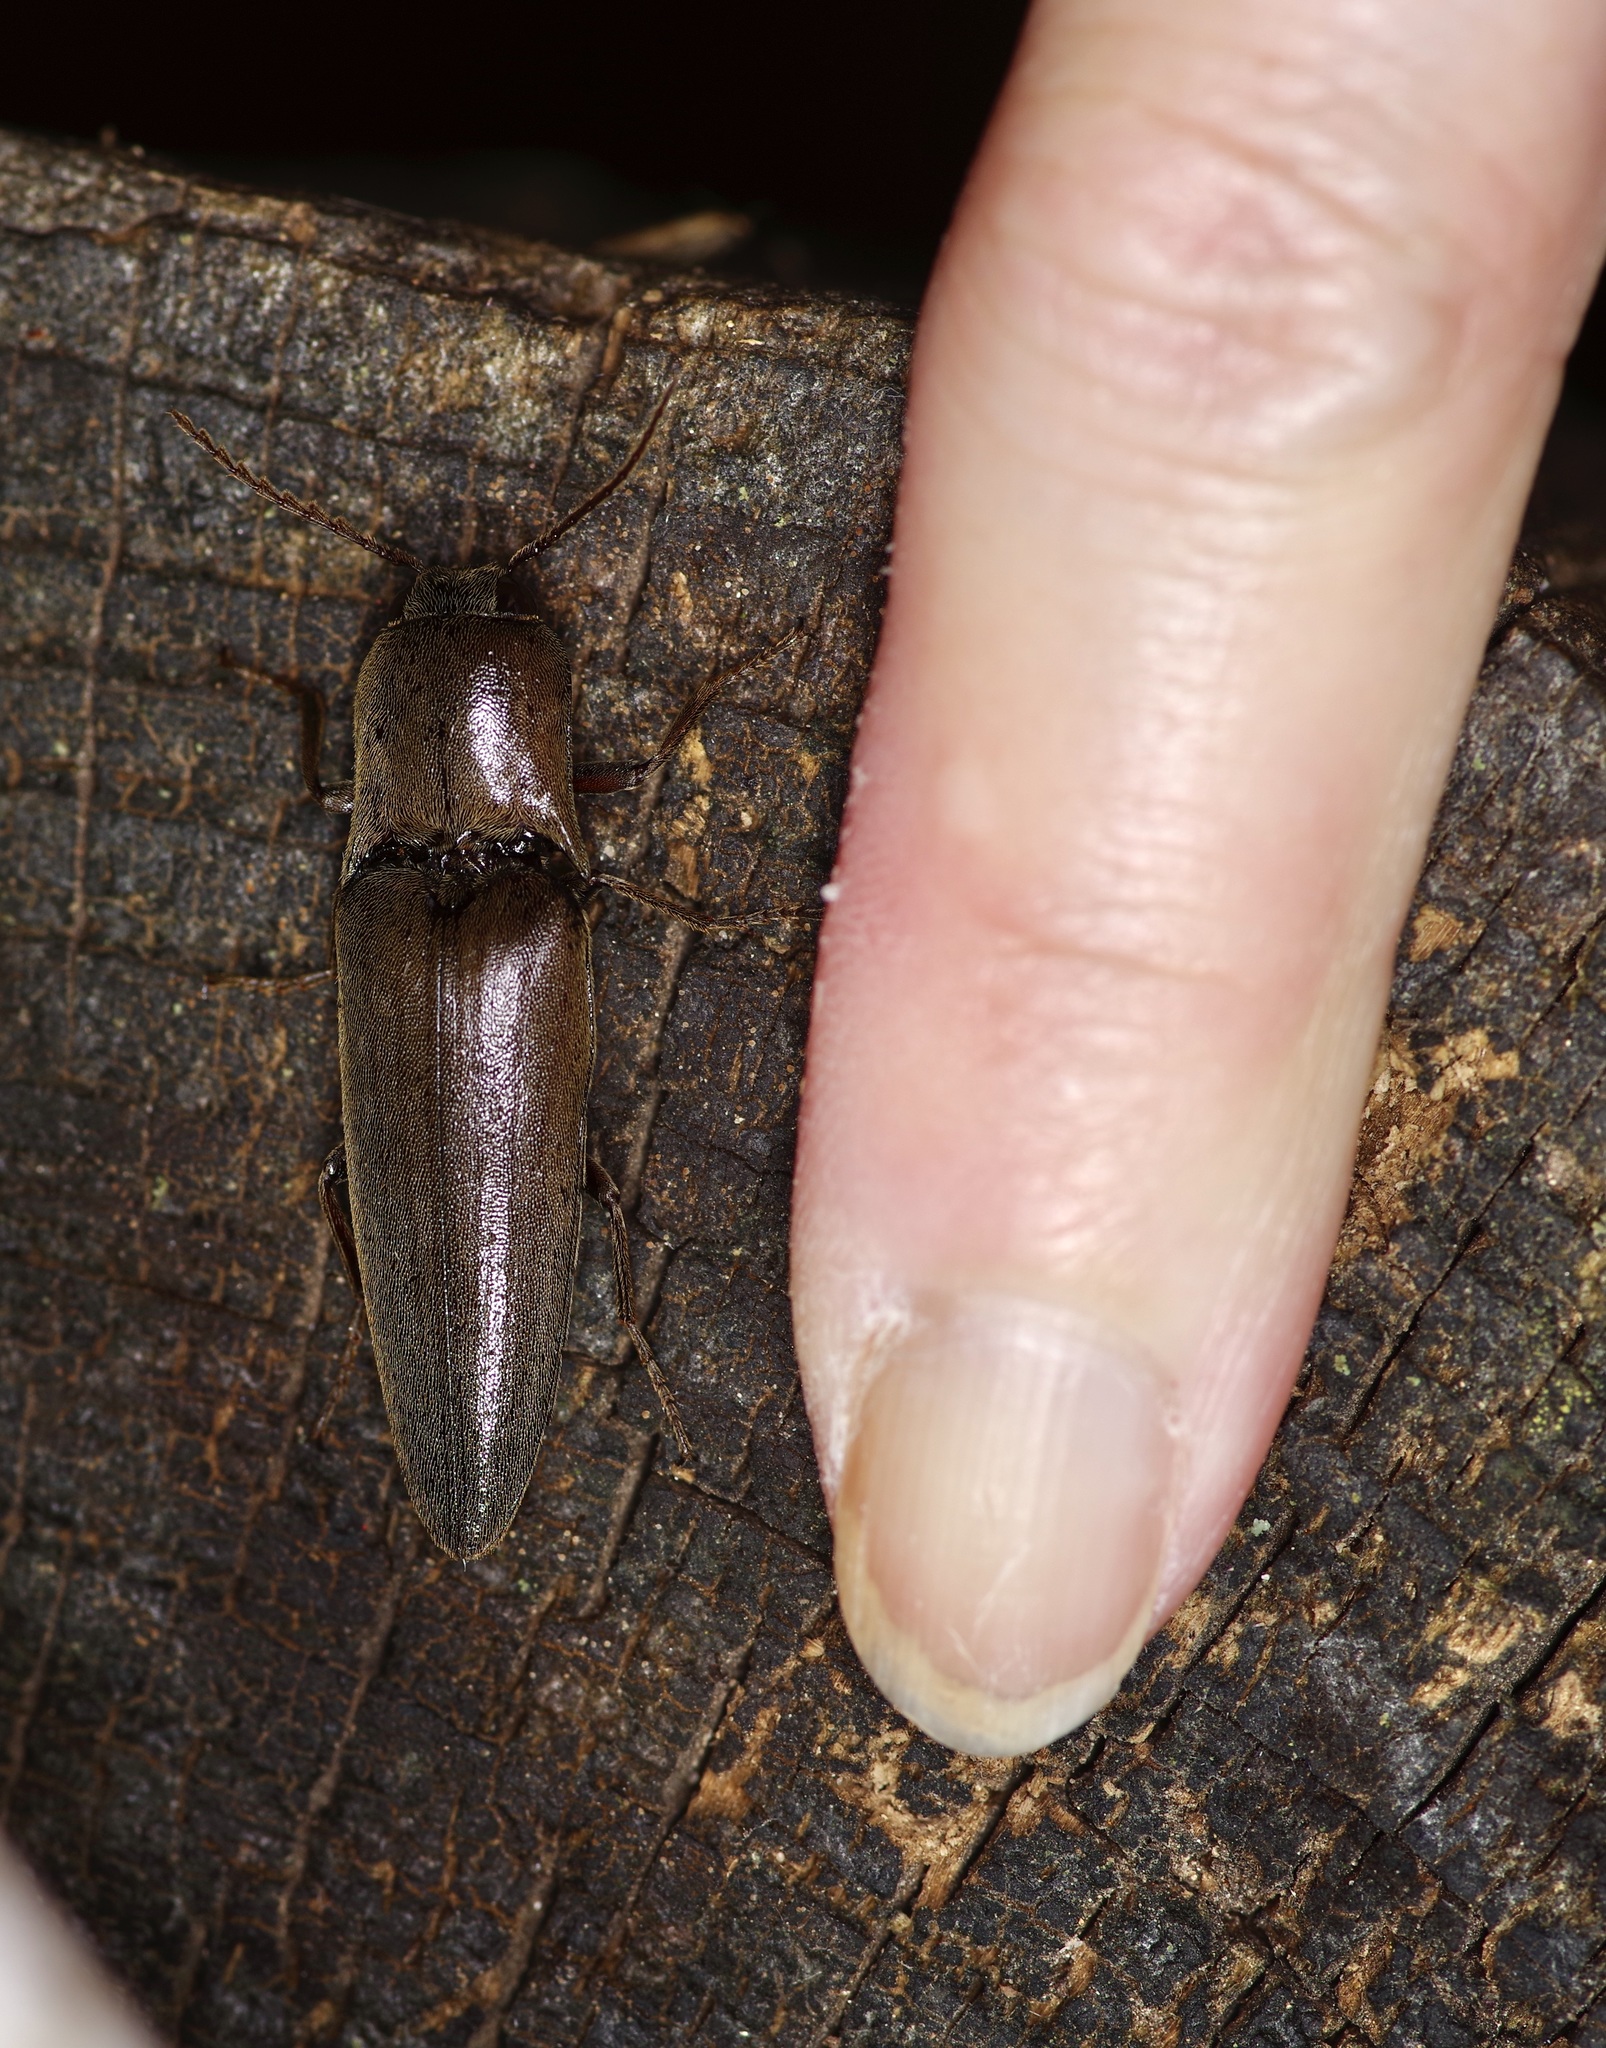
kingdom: Animalia
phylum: Arthropoda
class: Insecta
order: Coleoptera
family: Elateridae
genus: Orthostethus
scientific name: Orthostethus infuscatus
